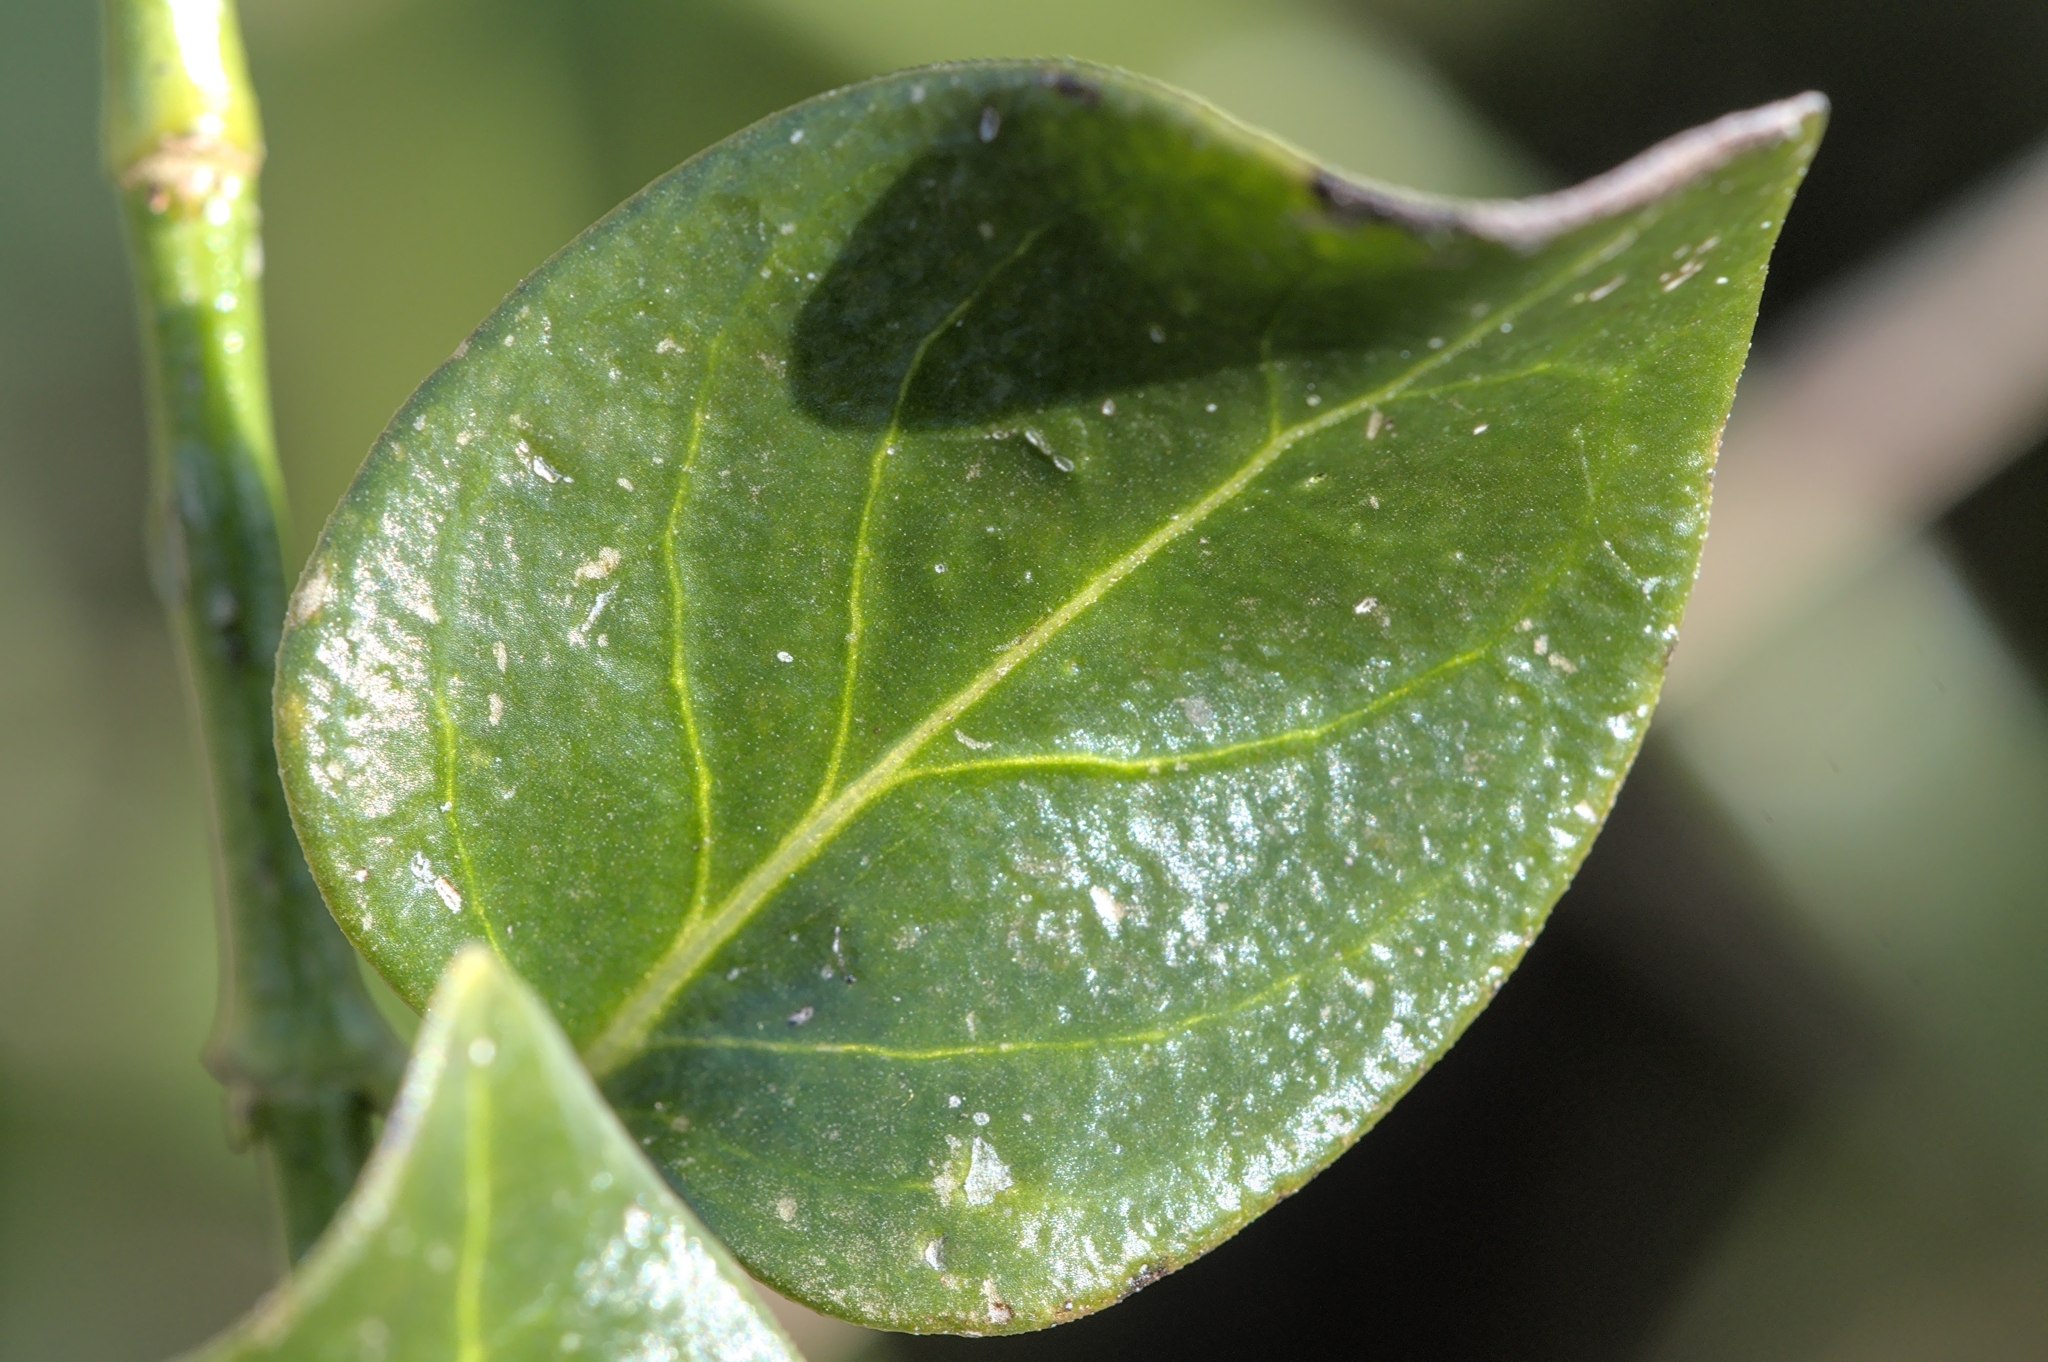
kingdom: Plantae
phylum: Tracheophyta
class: Magnoliopsida
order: Gentianales
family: Apocynaceae
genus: Vinca
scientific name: Vinca major
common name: Greater periwinkle
